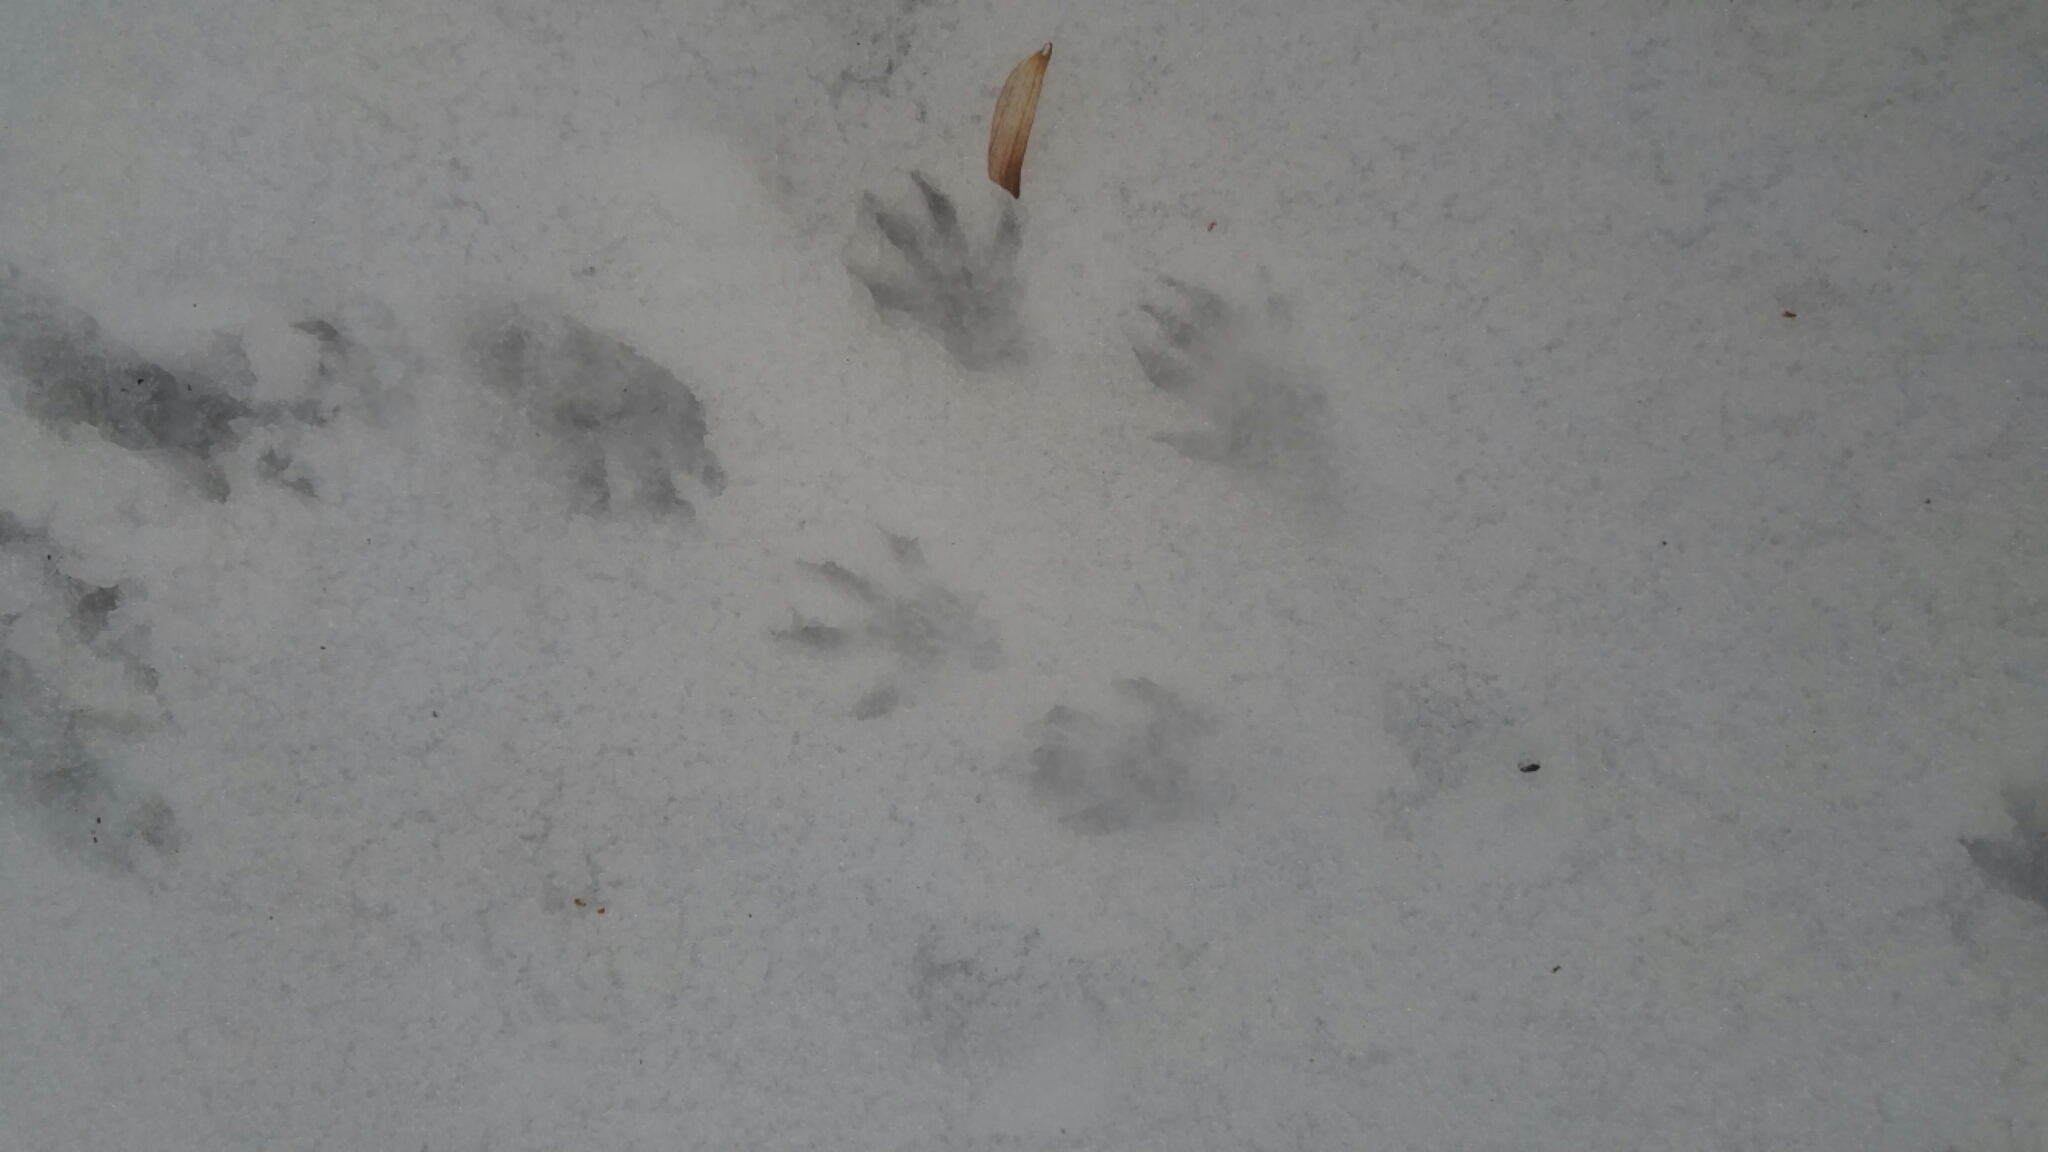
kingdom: Animalia
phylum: Chordata
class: Mammalia
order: Carnivora
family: Procyonidae
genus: Procyon
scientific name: Procyon lotor
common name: Raccoon
